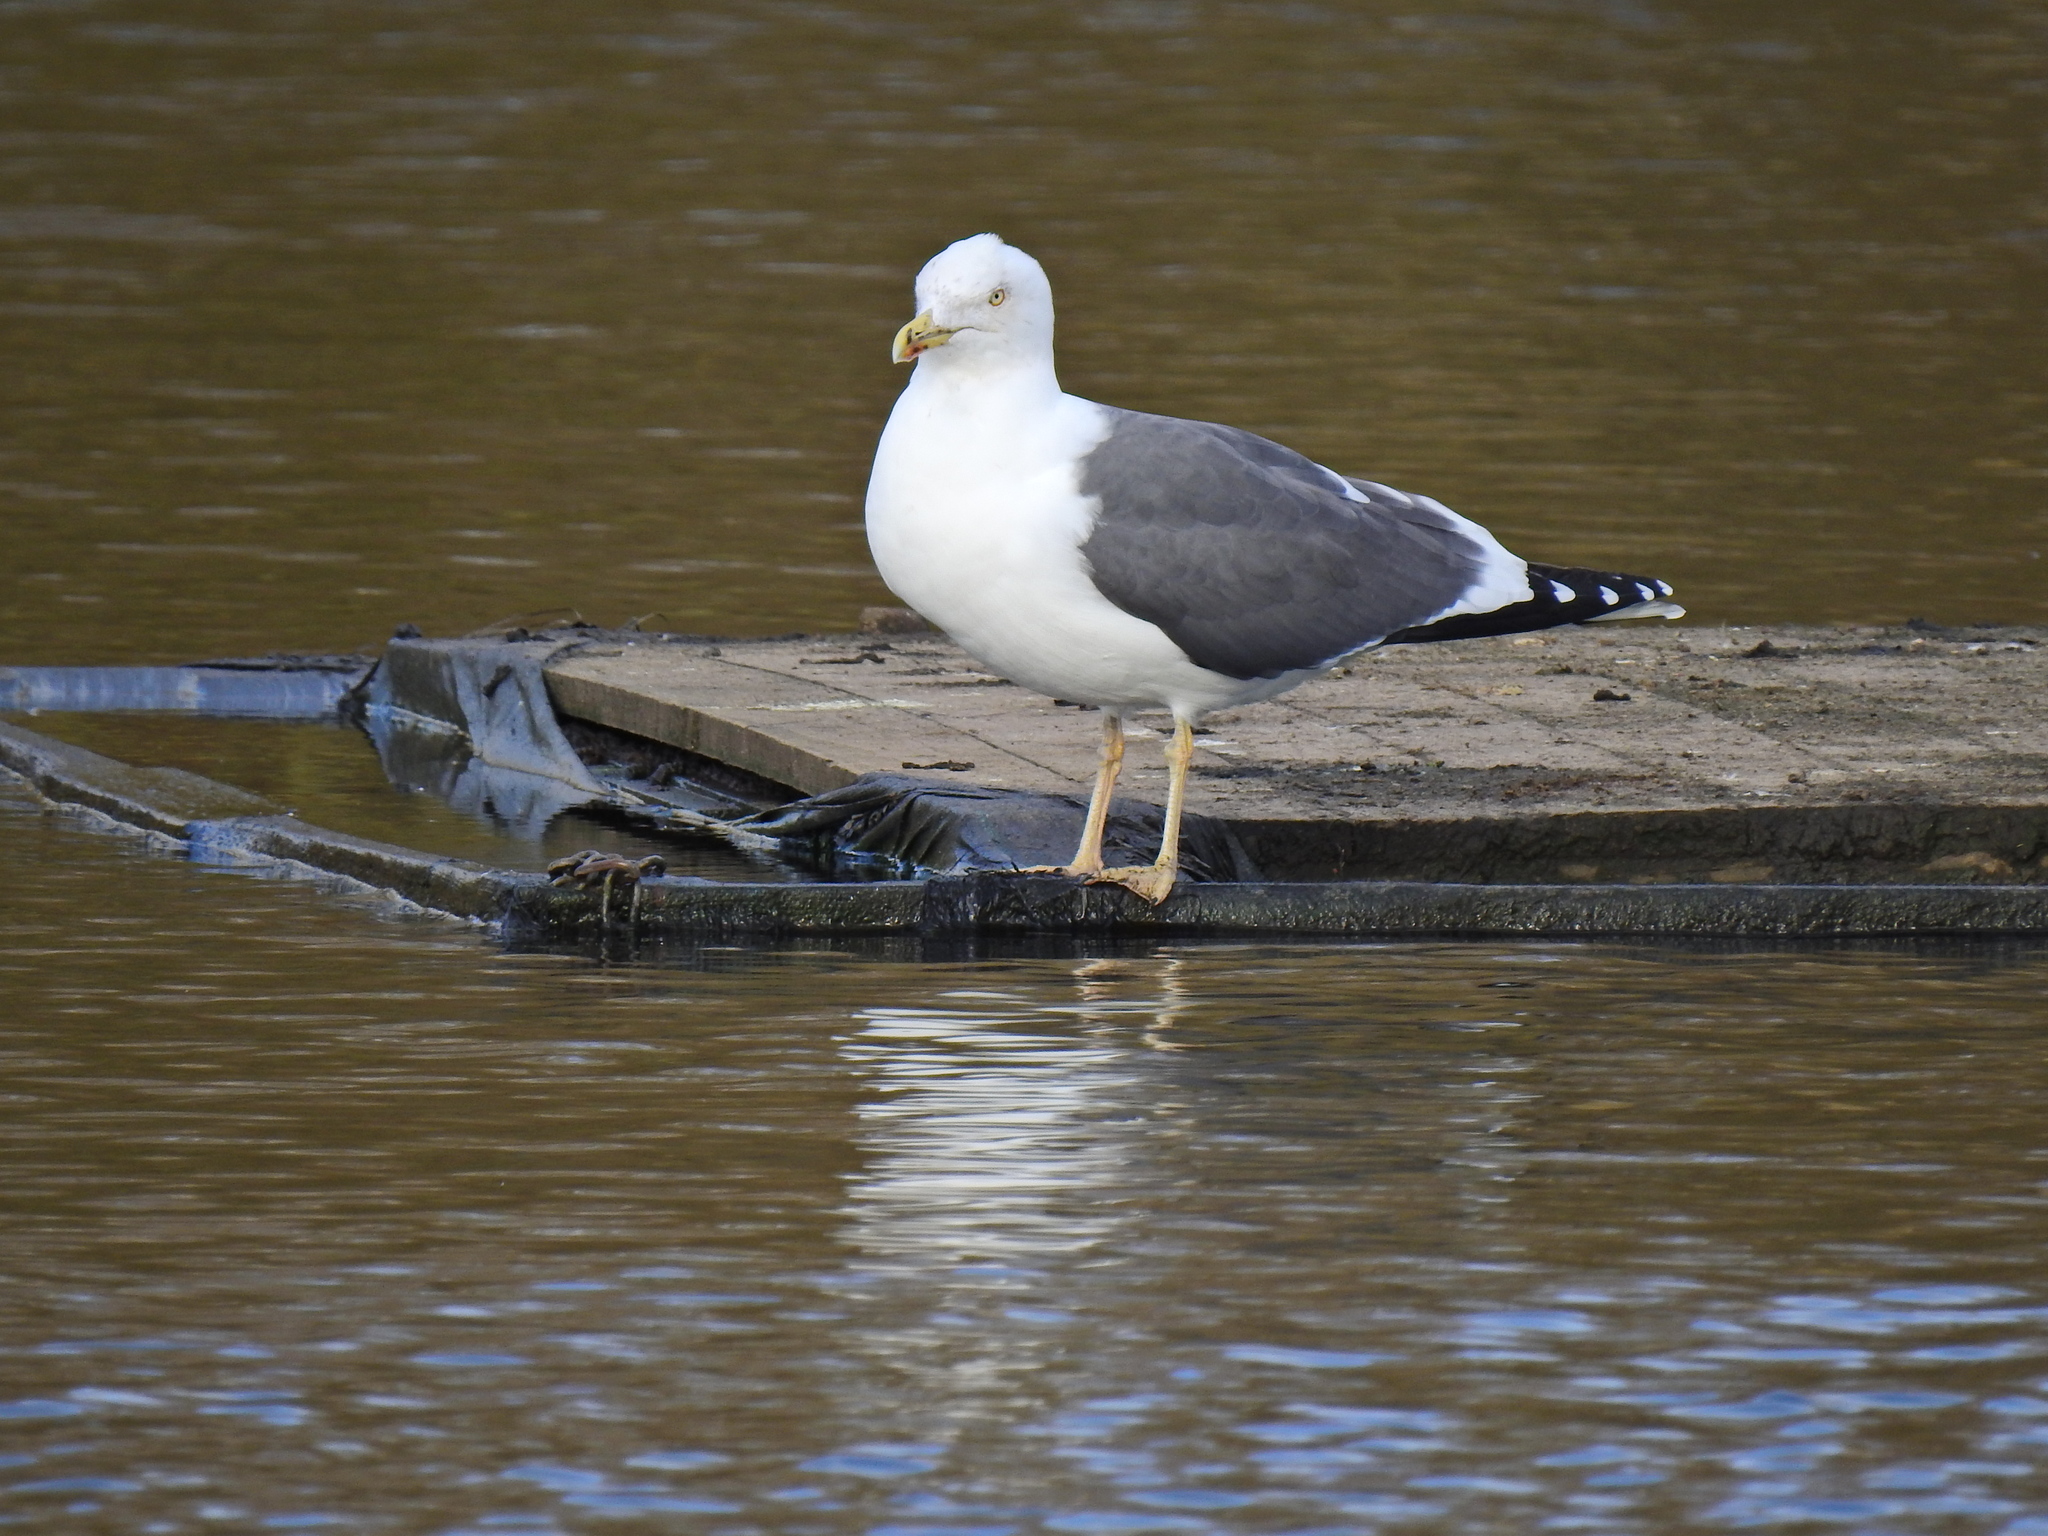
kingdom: Animalia
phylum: Chordata
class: Aves
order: Charadriiformes
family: Laridae
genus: Larus
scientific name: Larus fuscus
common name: Lesser black-backed gull
